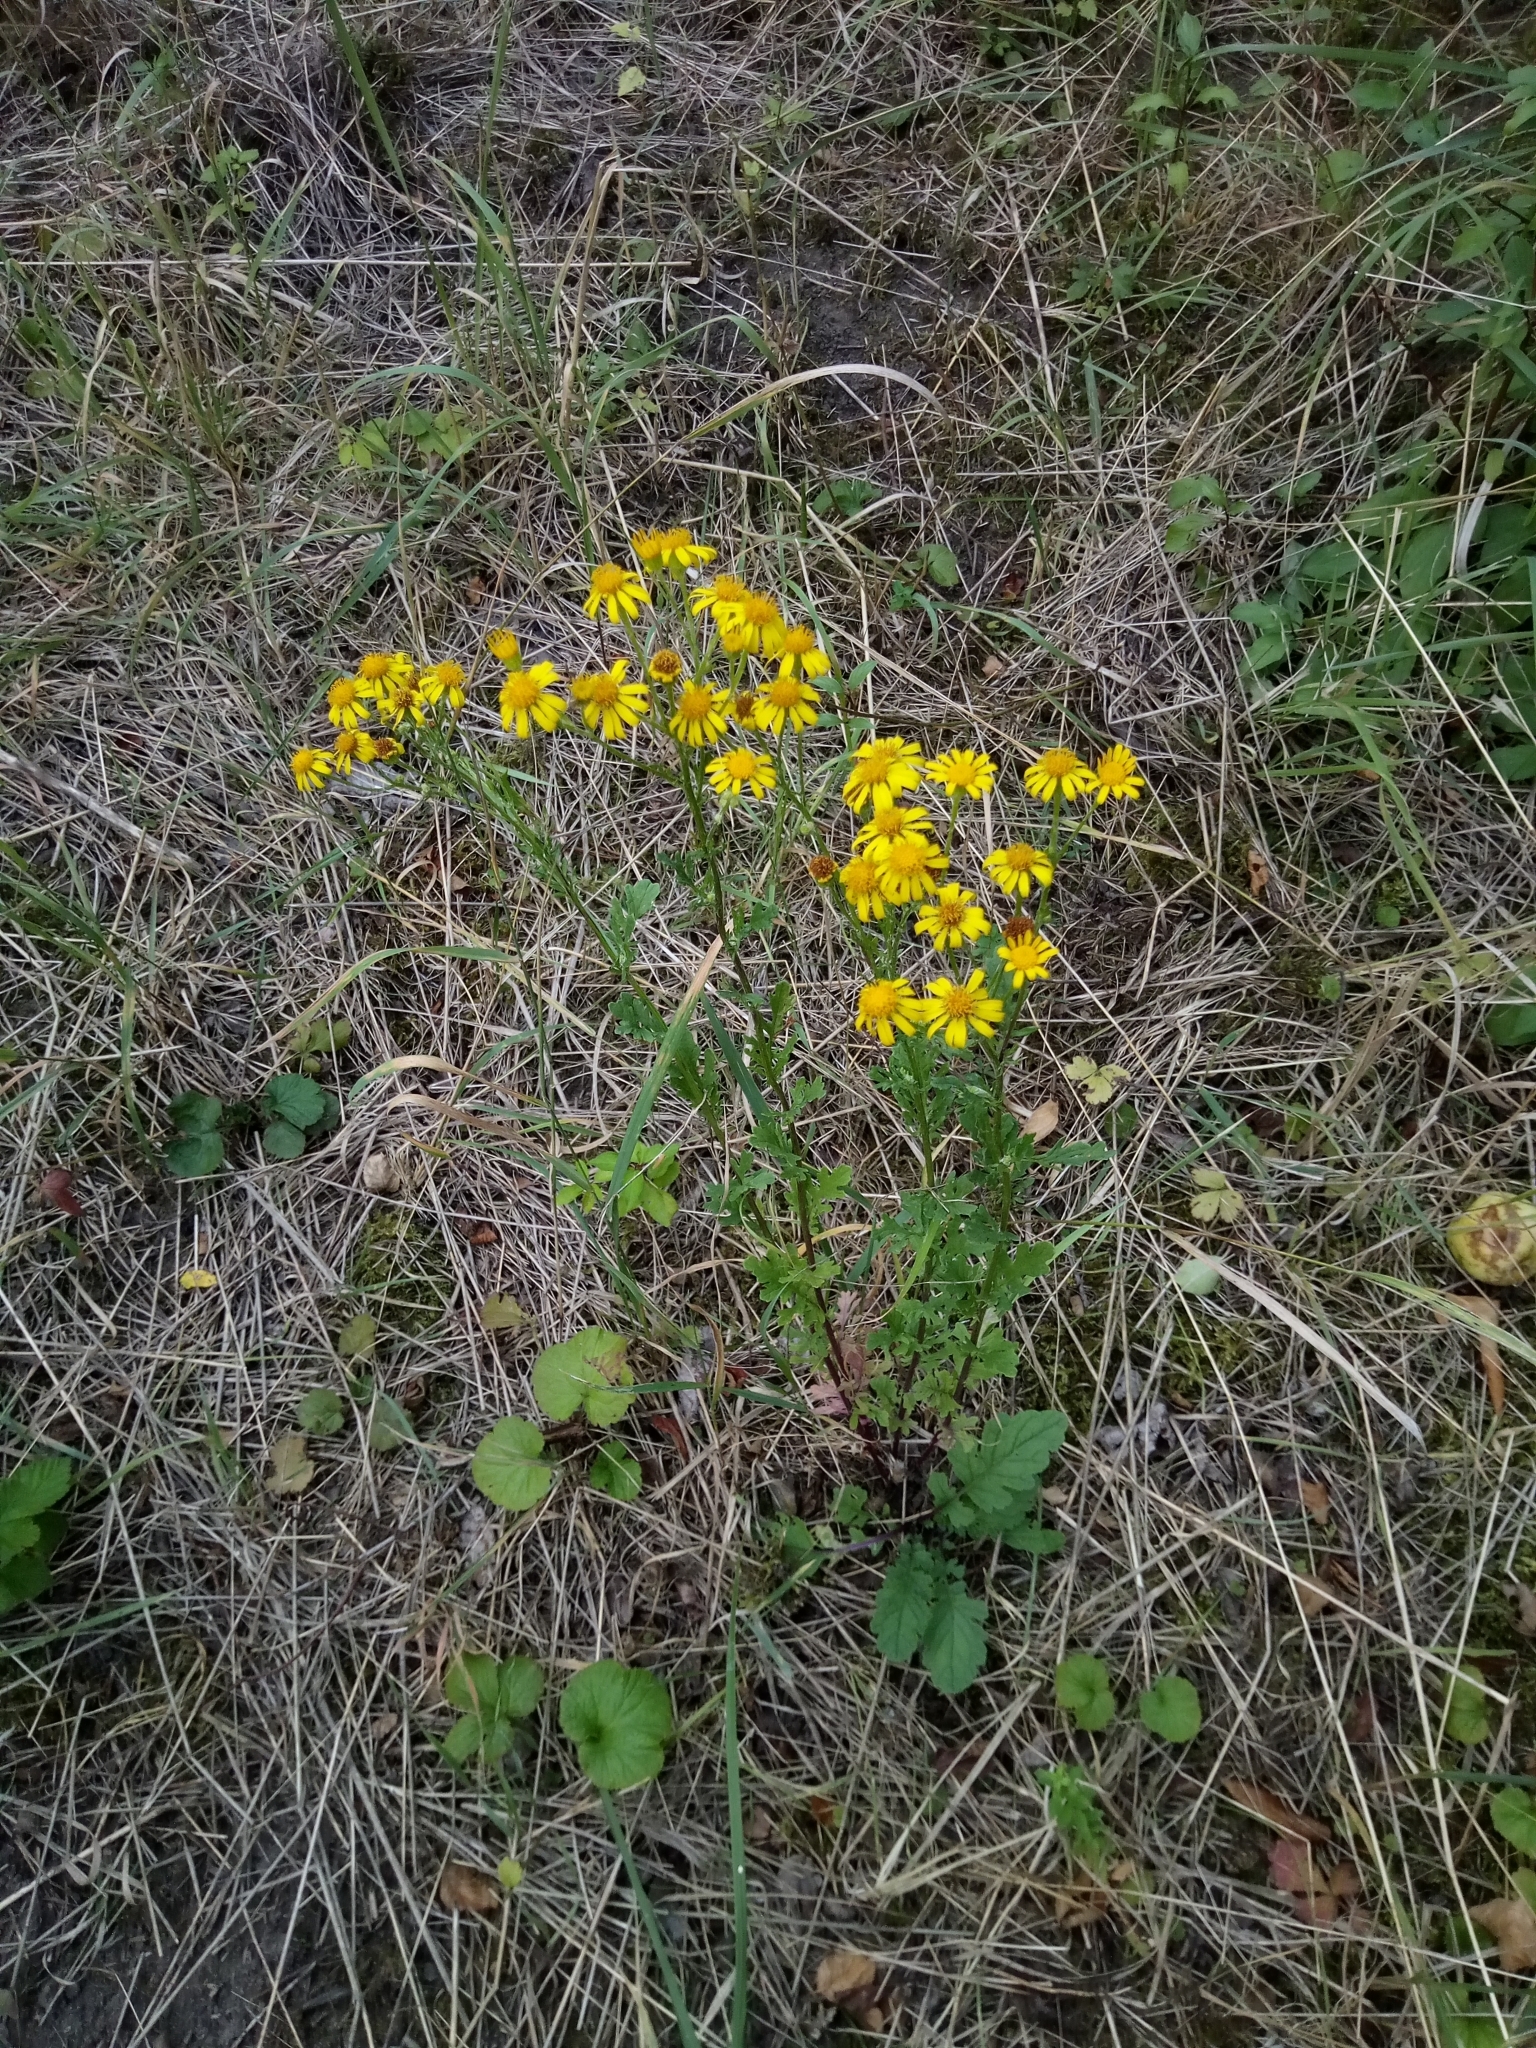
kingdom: Plantae
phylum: Tracheophyta
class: Magnoliopsida
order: Asterales
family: Asteraceae
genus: Jacobaea
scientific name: Jacobaea vulgaris
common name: Stinking willie
